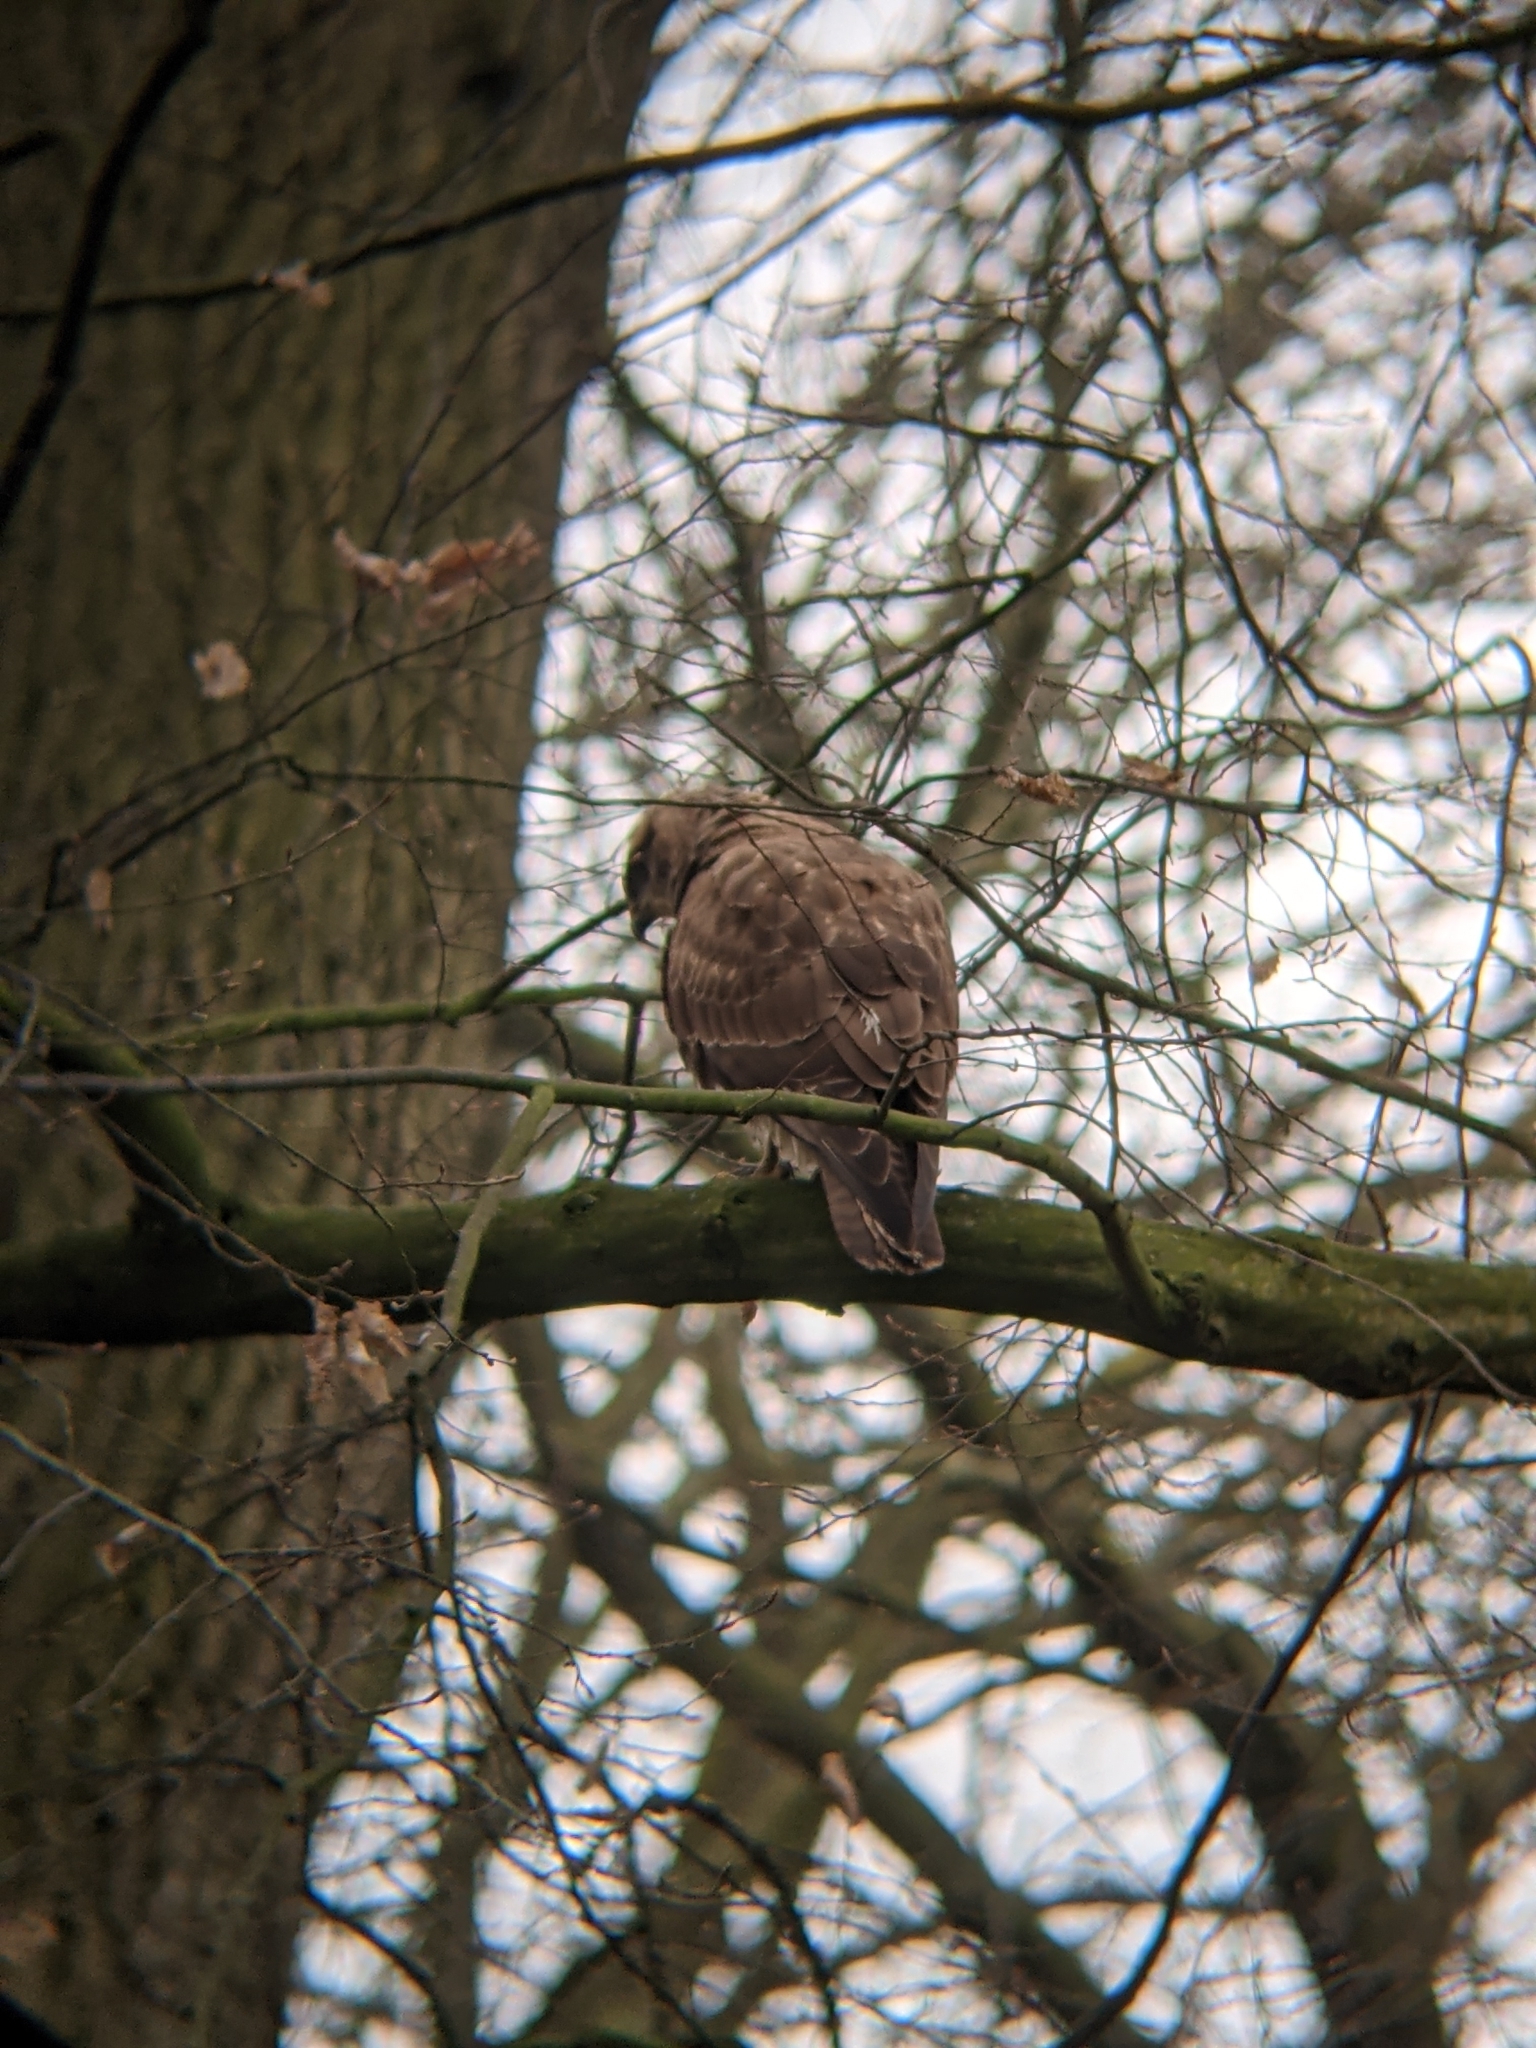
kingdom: Animalia
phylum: Chordata
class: Aves
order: Accipitriformes
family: Accipitridae
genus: Buteo
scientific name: Buteo buteo
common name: Common buzzard
